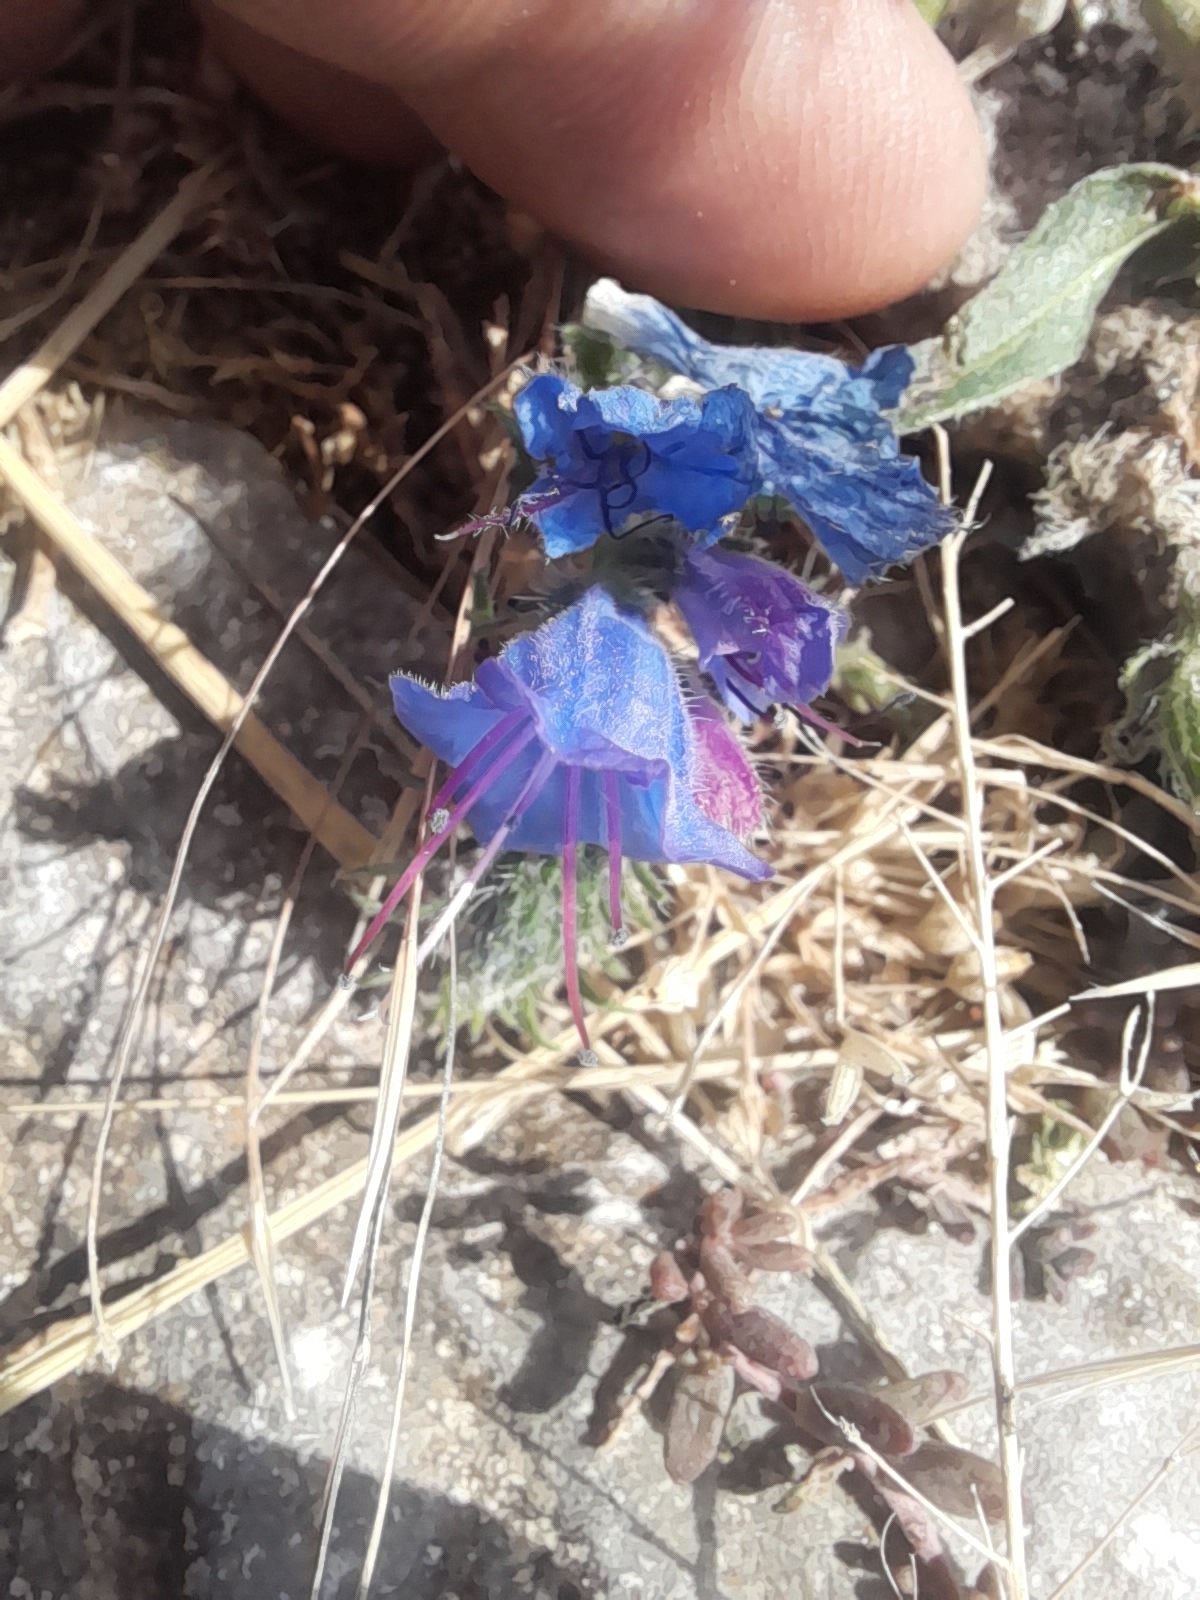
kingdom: Plantae
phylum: Tracheophyta
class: Magnoliopsida
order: Boraginales
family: Boraginaceae
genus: Echium
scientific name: Echium vulgare
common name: Common viper's bugloss
